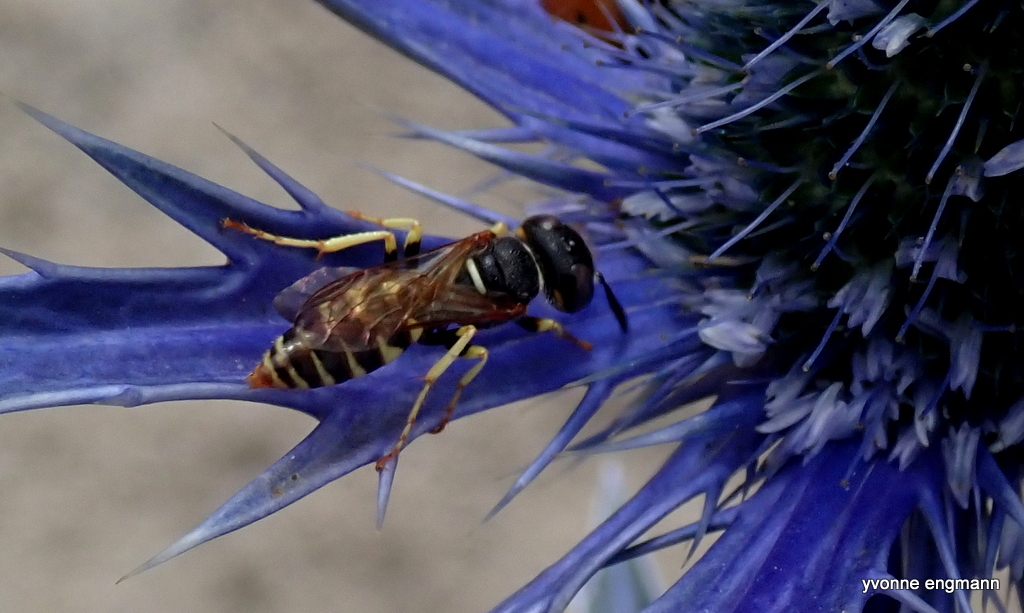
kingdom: Animalia
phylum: Arthropoda
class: Insecta
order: Hymenoptera
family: Crabronidae
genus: Philanthus
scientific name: Philanthus triangulum
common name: Bee wolf
